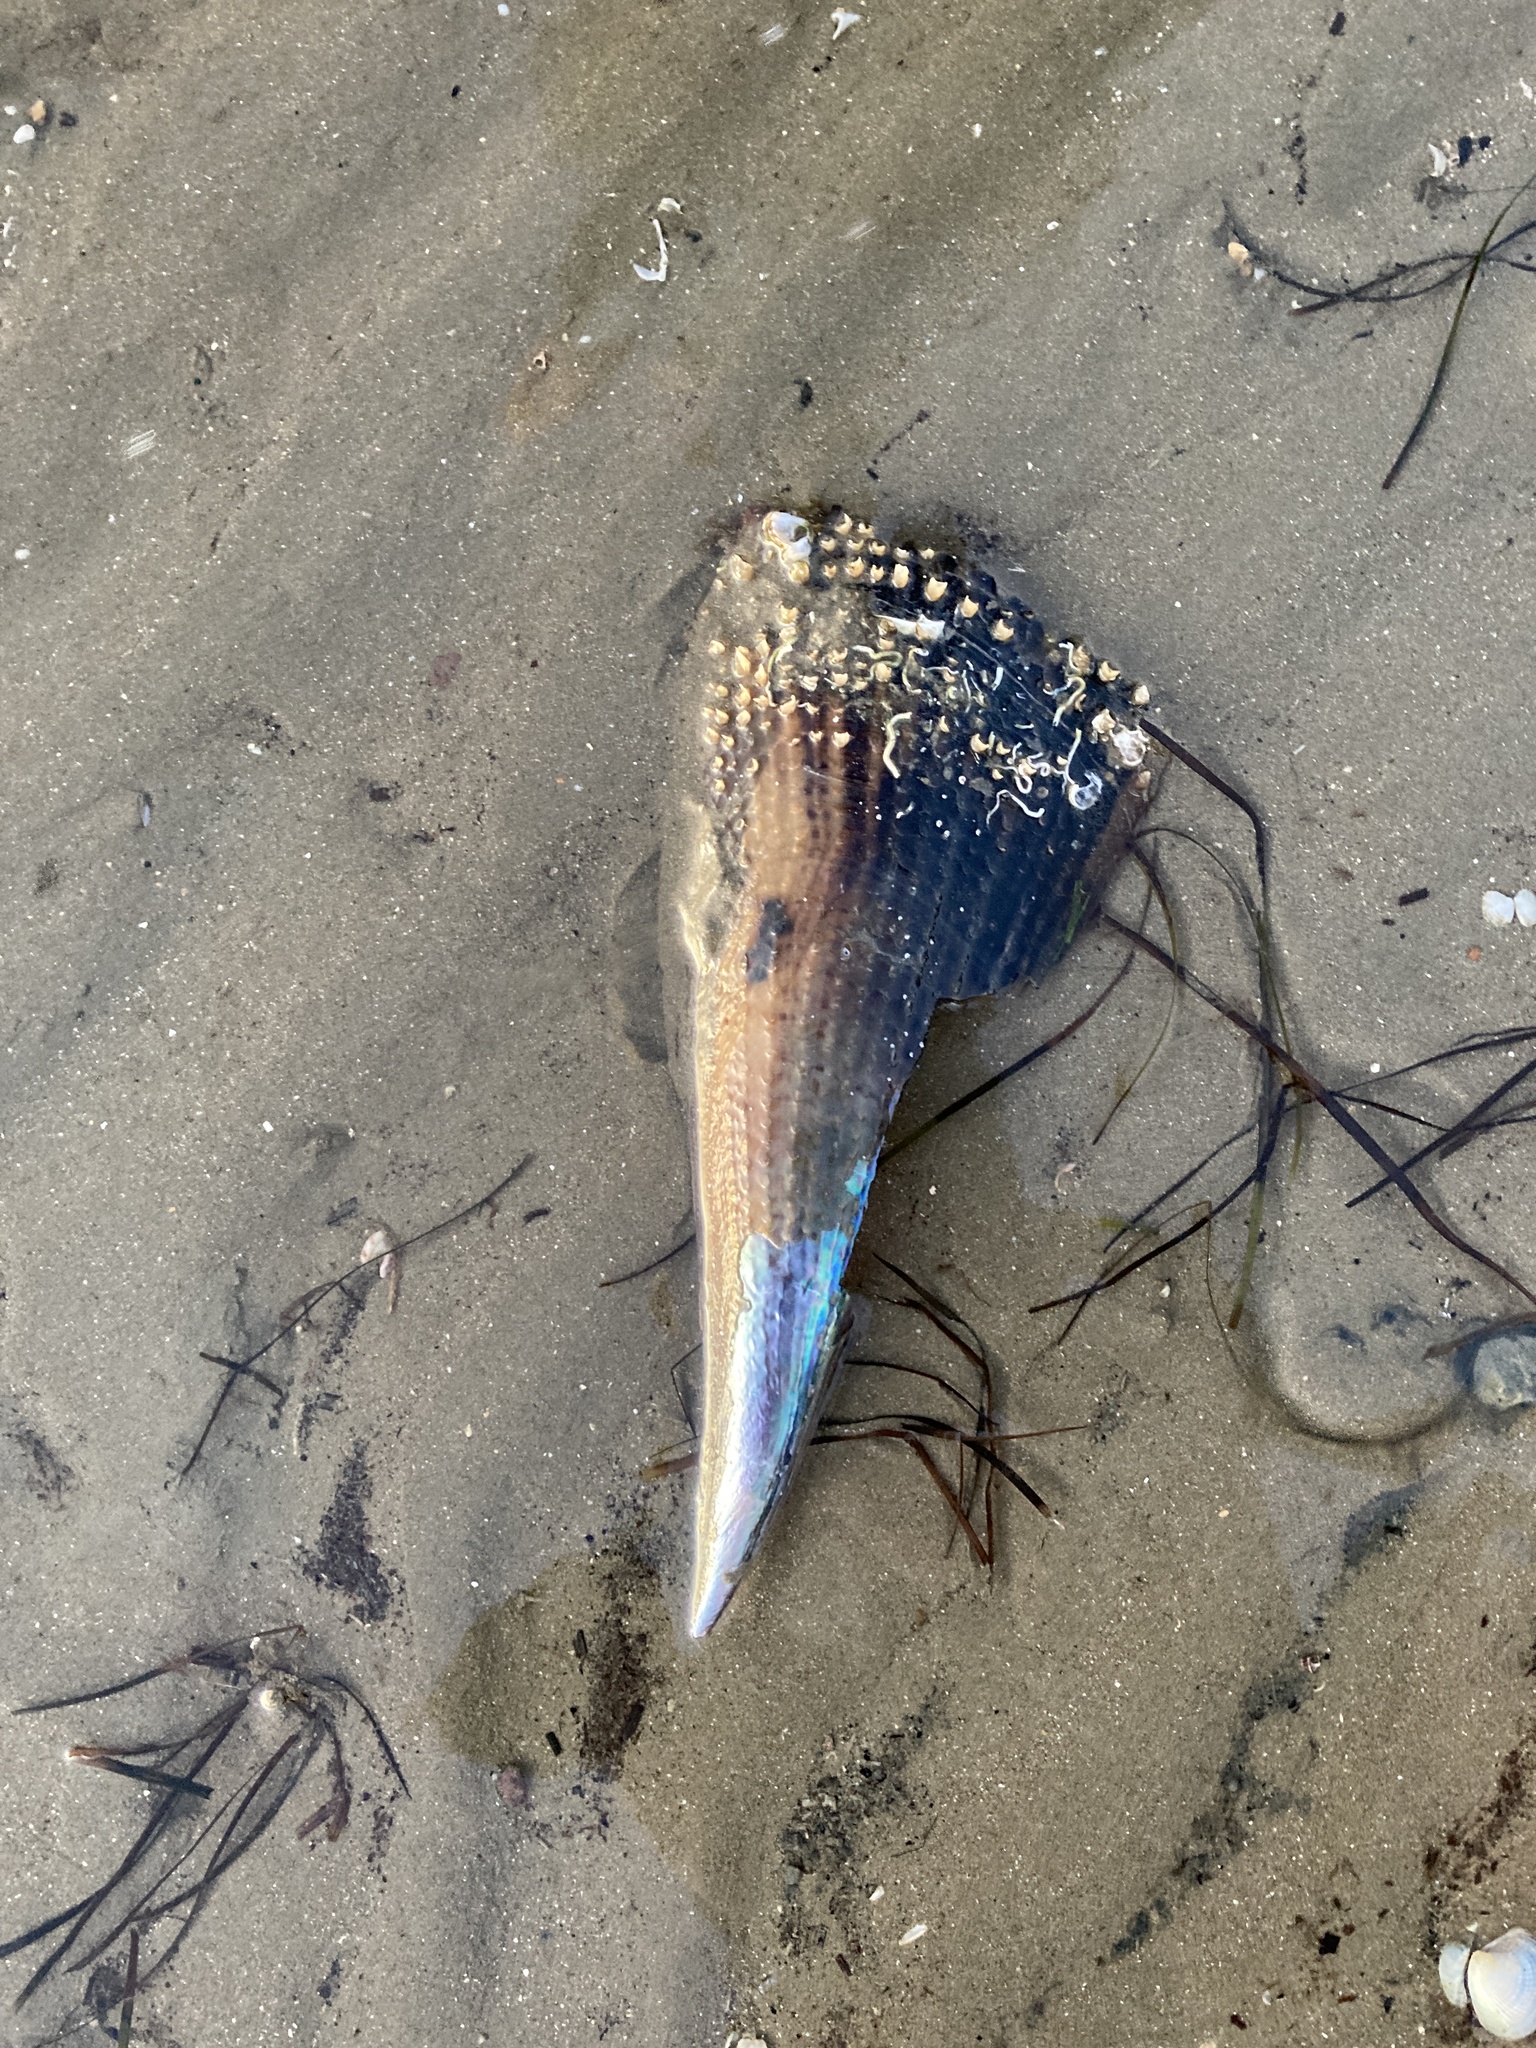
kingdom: Animalia
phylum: Mollusca
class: Bivalvia
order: Ostreida
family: Pinnidae
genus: Atrina
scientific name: Atrina zelandica
